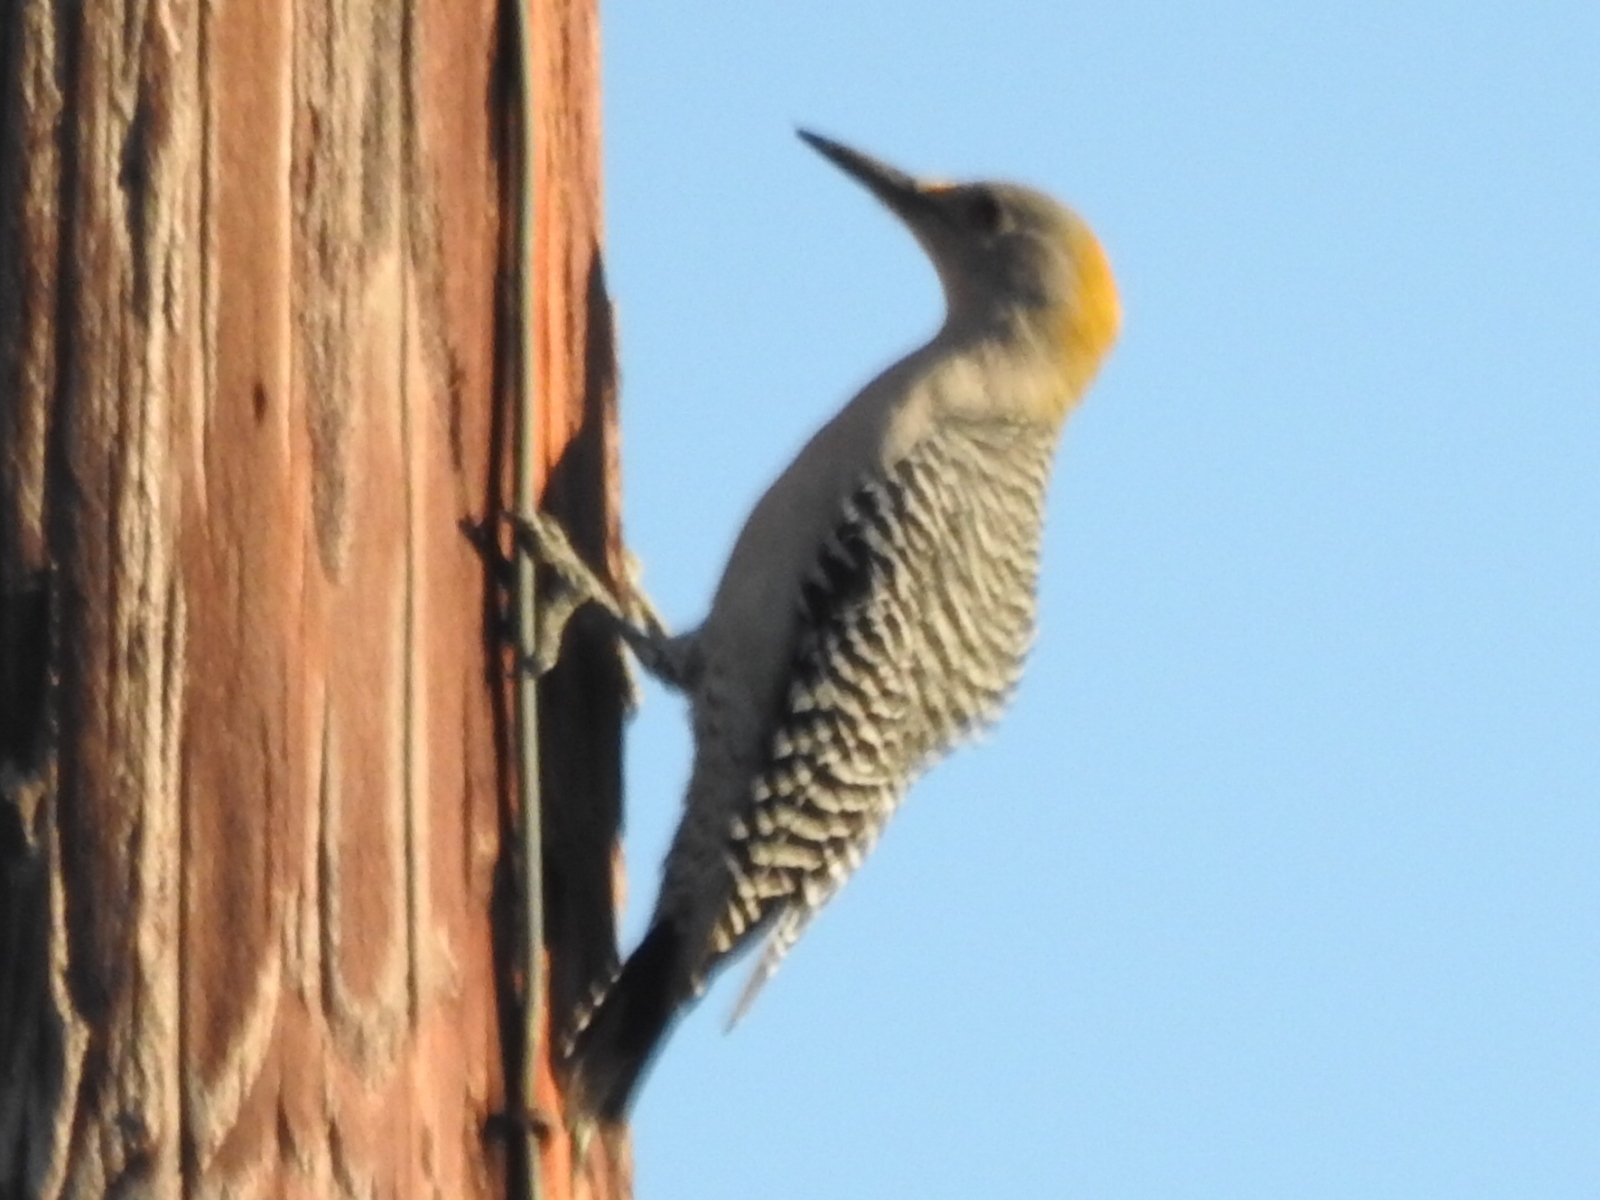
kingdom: Animalia
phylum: Chordata
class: Aves
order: Piciformes
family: Picidae
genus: Melanerpes
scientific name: Melanerpes aurifrons
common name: Golden-fronted woodpecker
